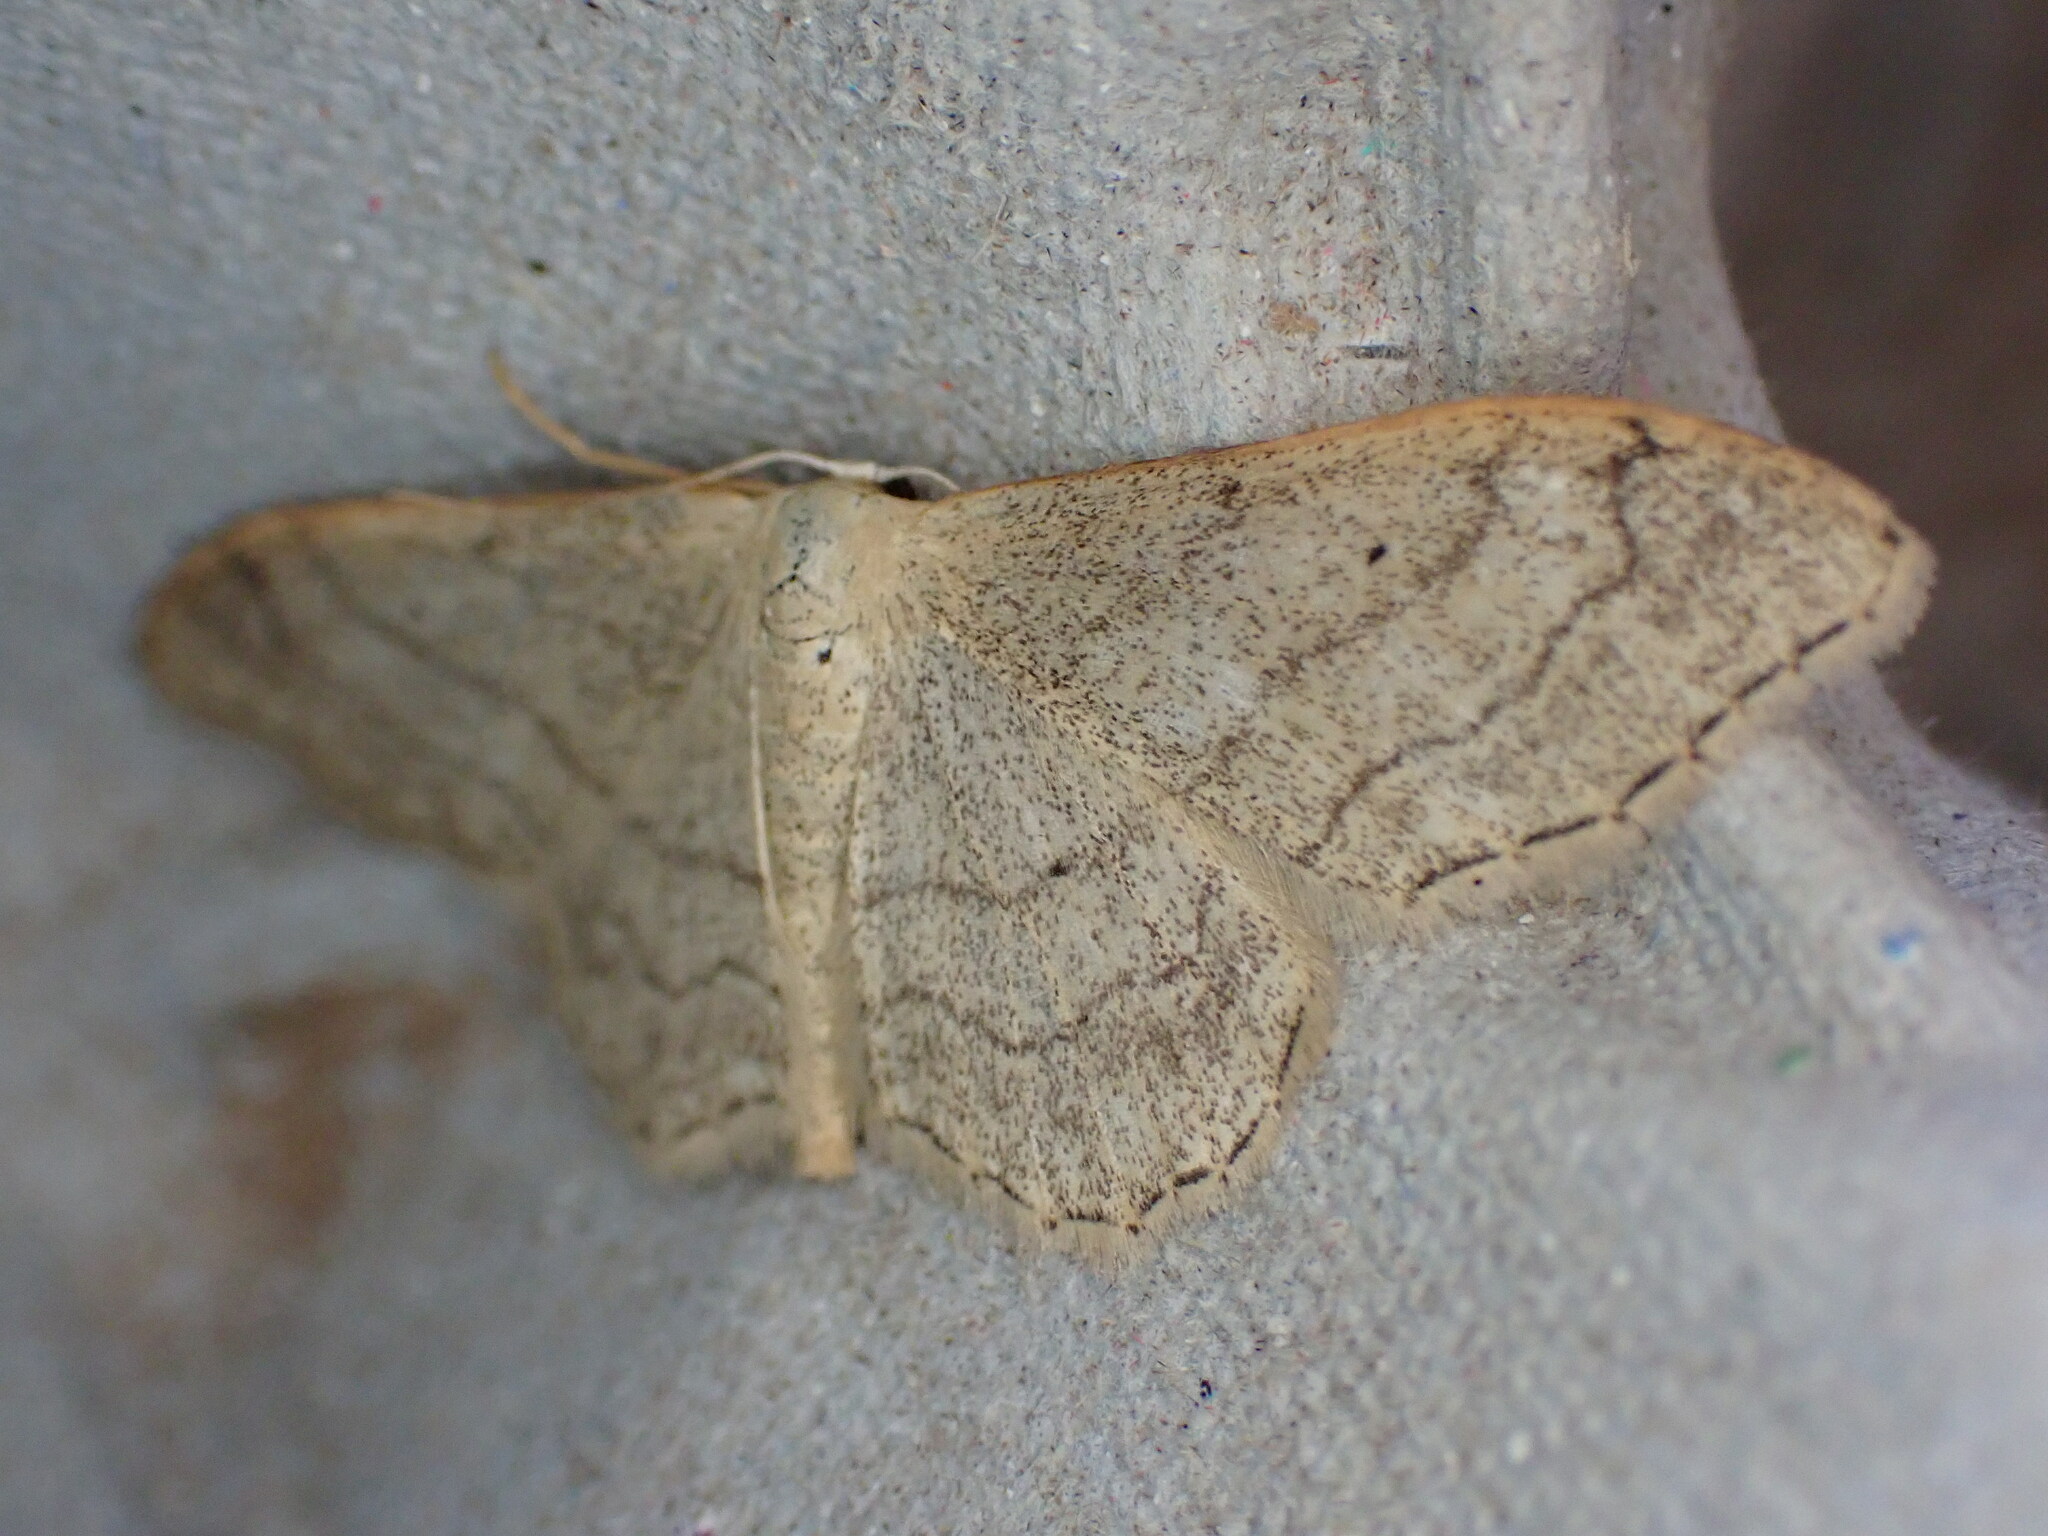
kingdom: Animalia
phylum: Arthropoda
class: Insecta
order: Lepidoptera
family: Geometridae
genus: Idaea
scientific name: Idaea aversata
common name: Riband wave
